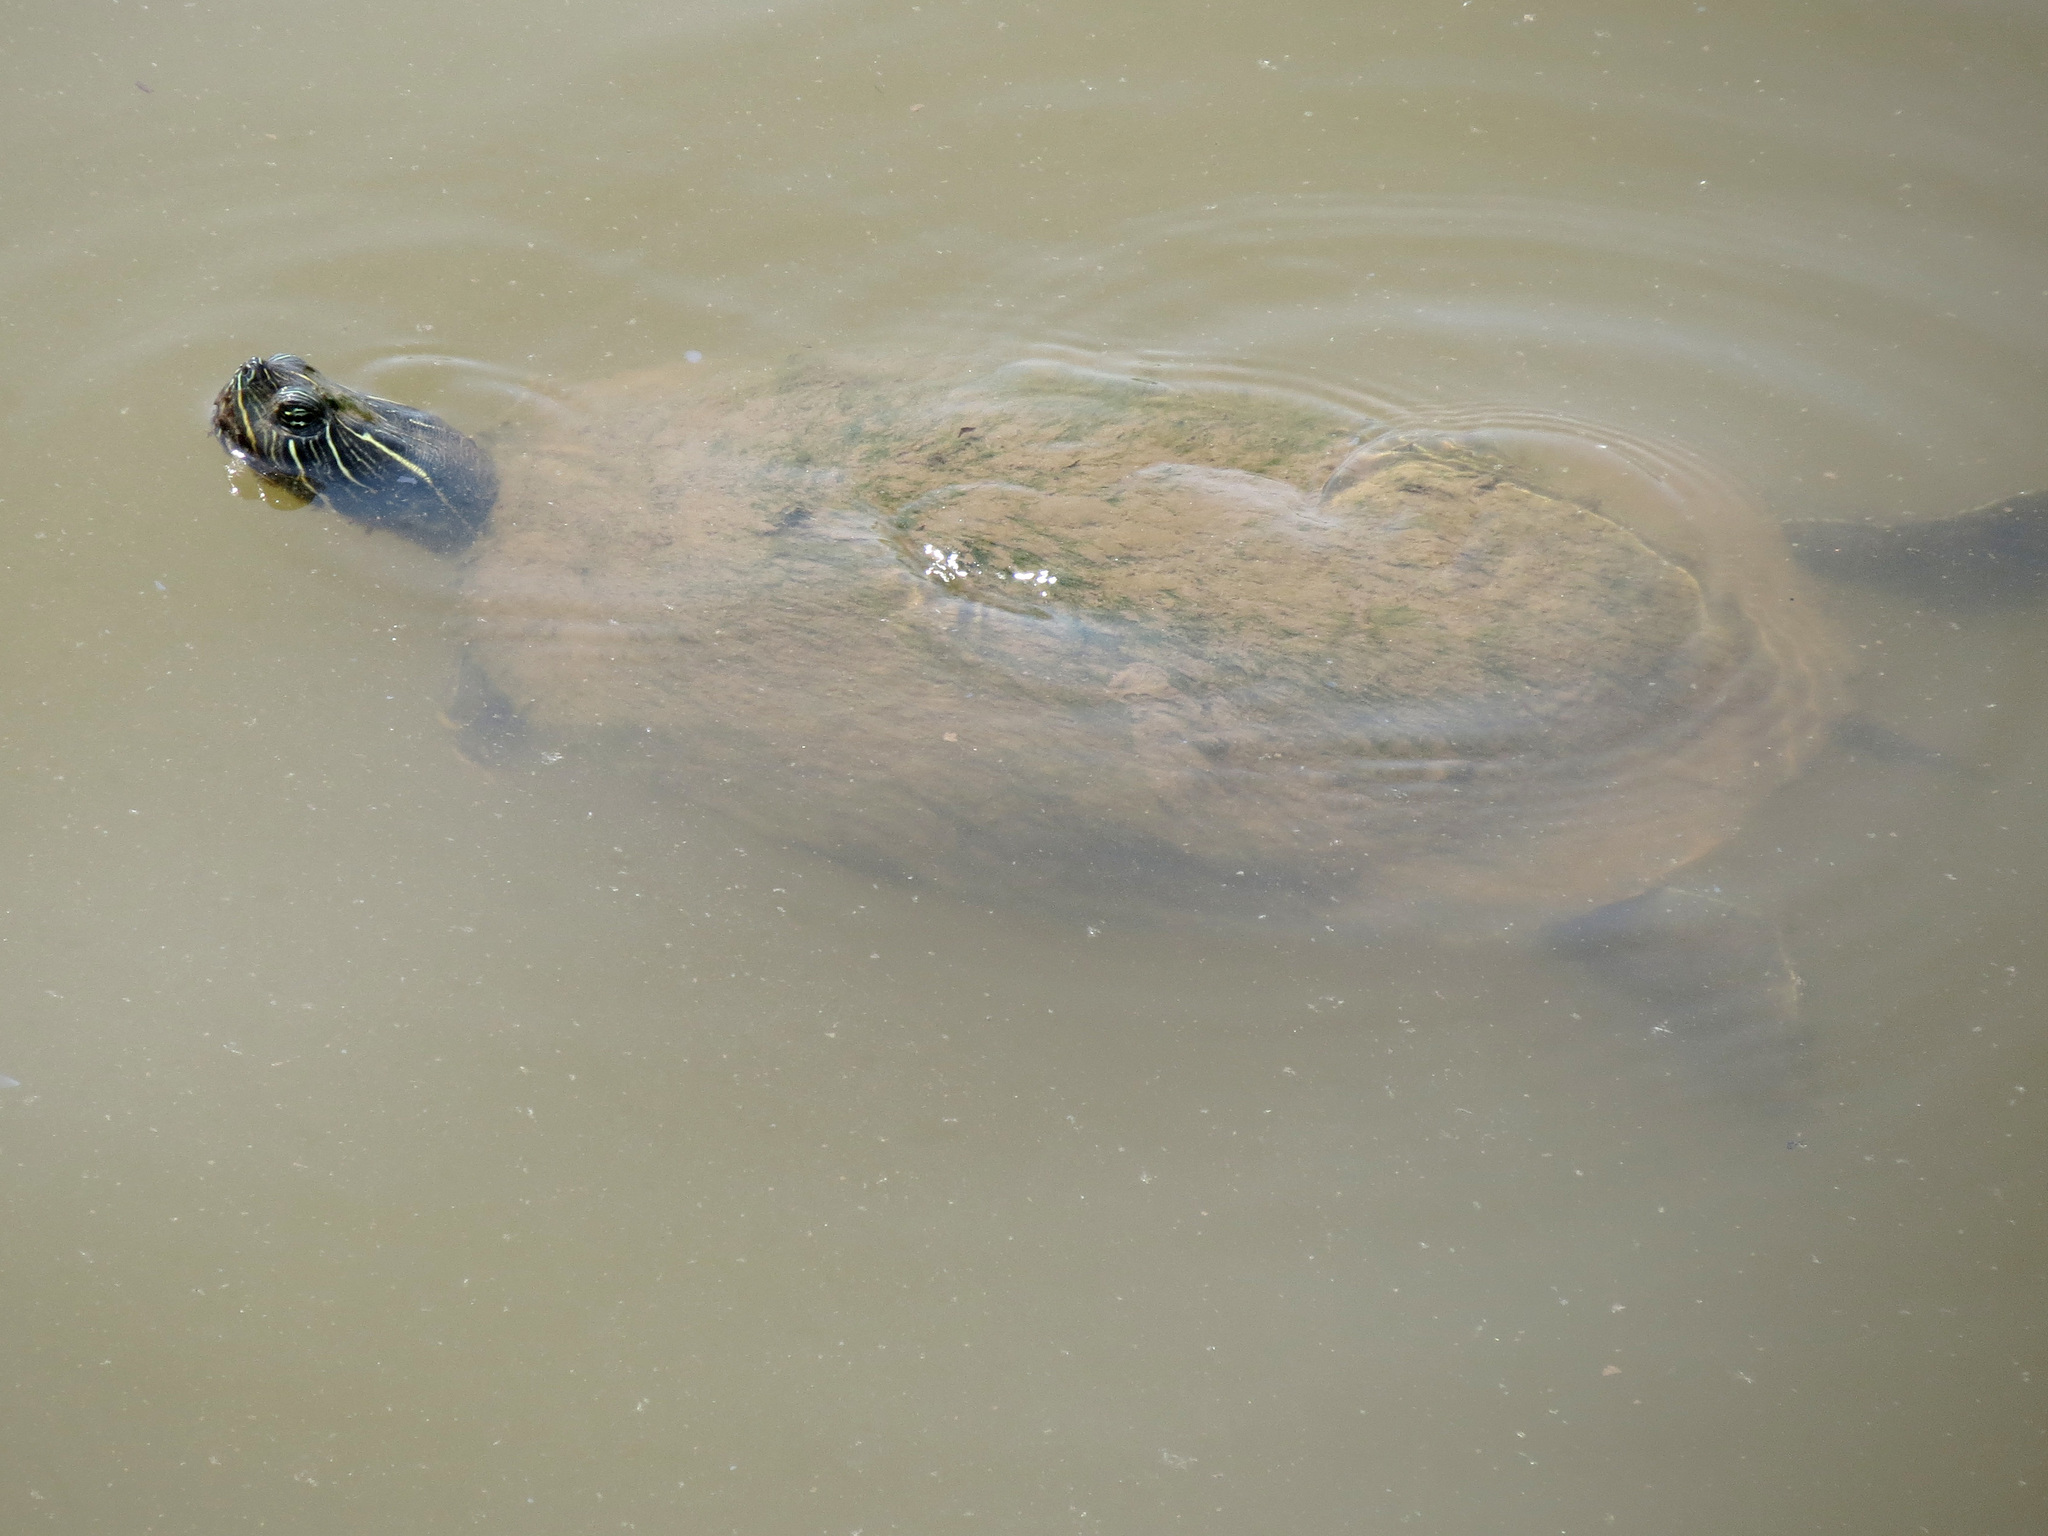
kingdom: Animalia
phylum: Chordata
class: Testudines
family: Emydidae
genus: Pseudemys
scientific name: Pseudemys rubriventris
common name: American red-bellied turtle
